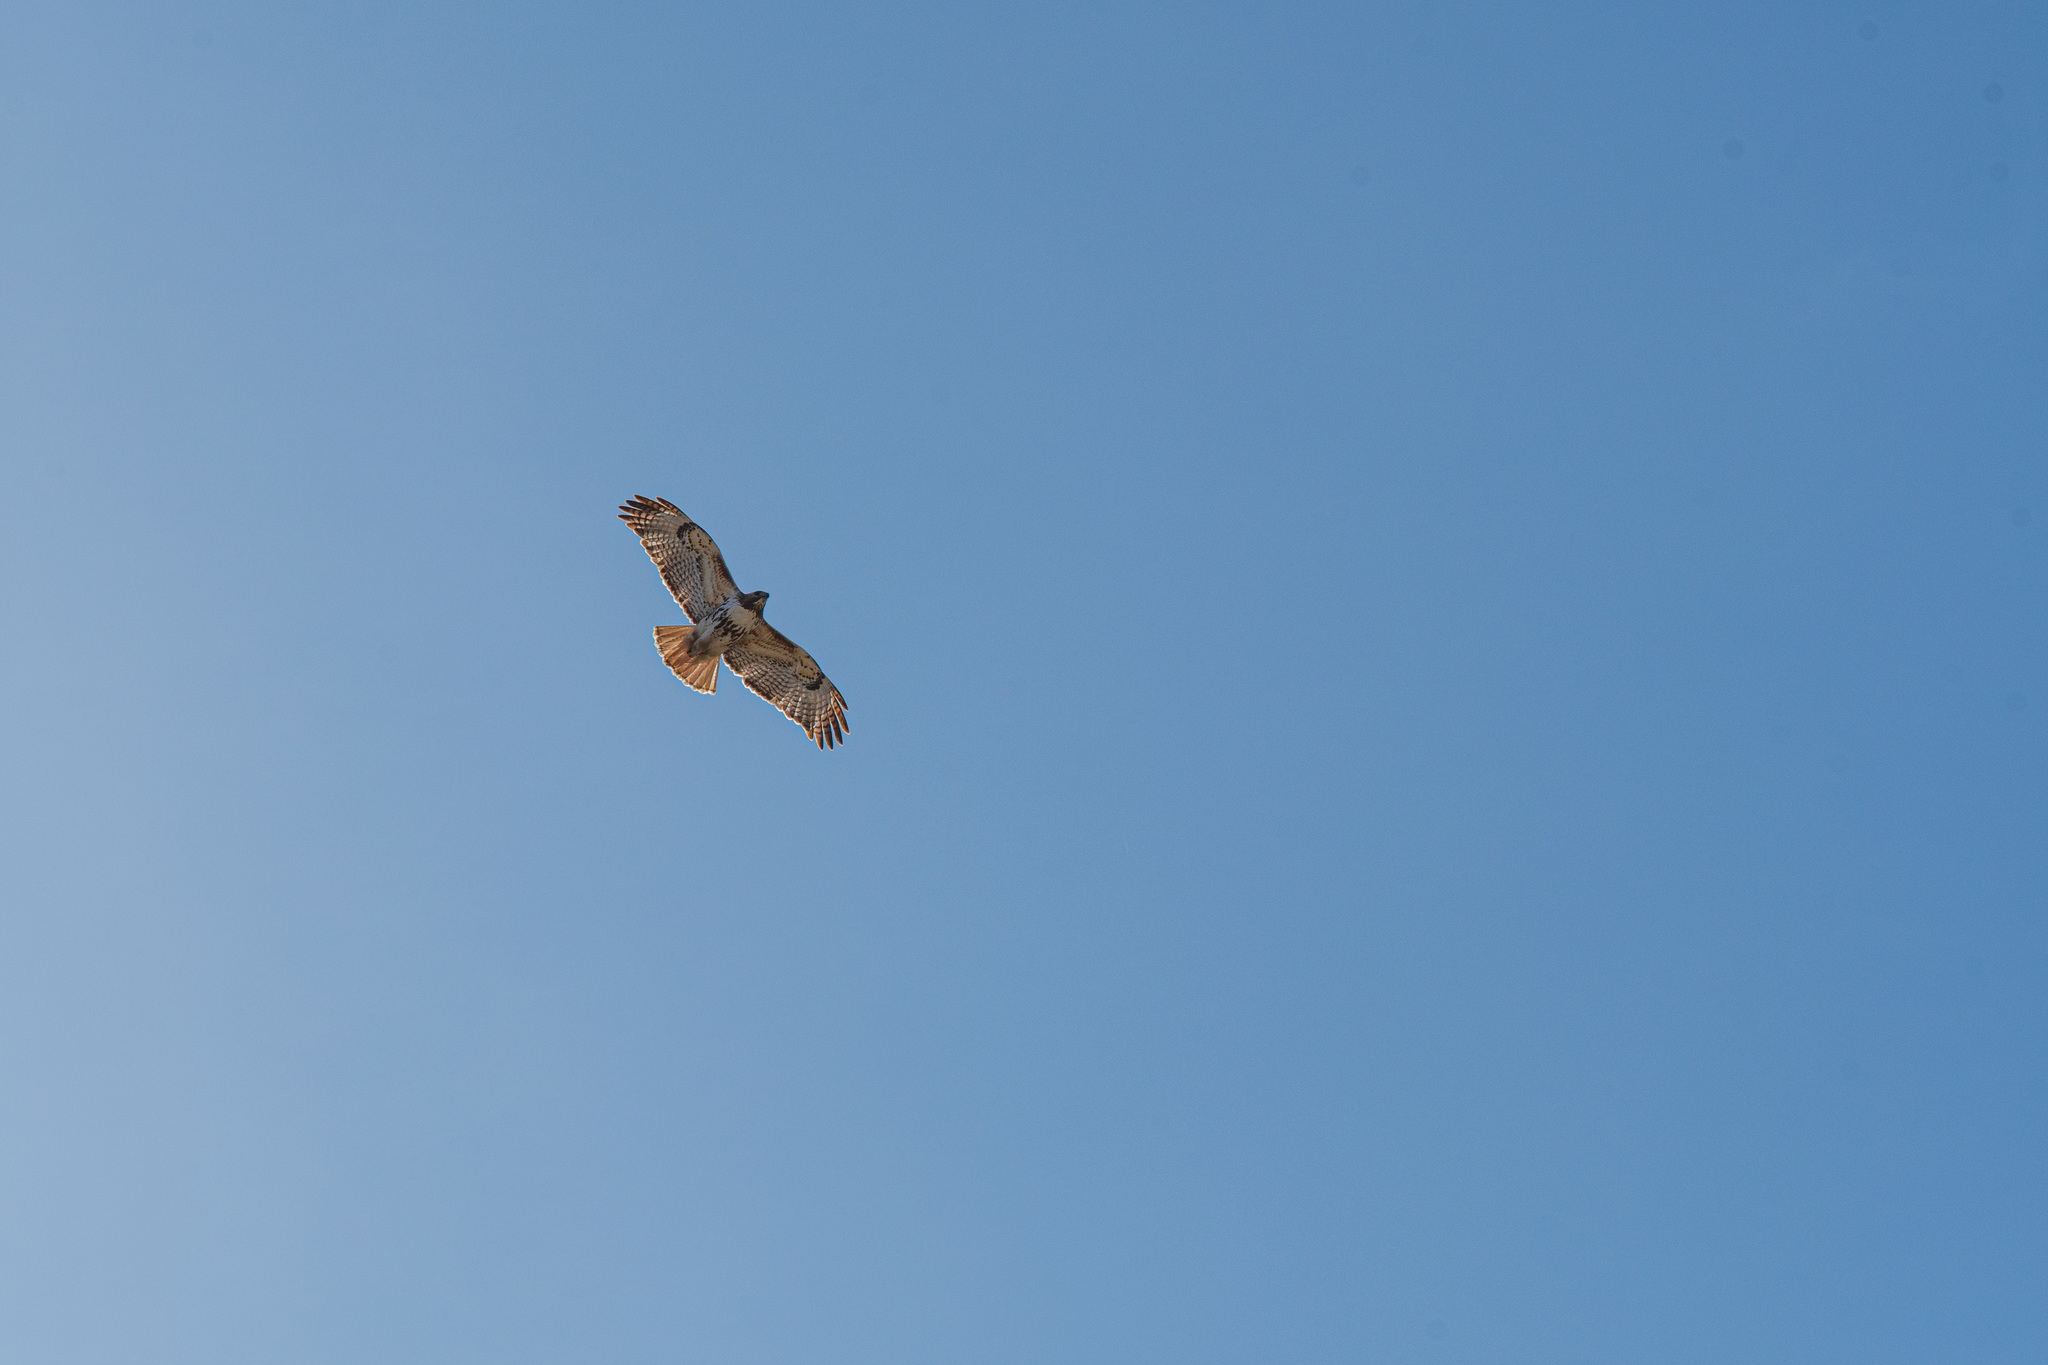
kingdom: Animalia
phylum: Chordata
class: Aves
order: Accipitriformes
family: Accipitridae
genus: Buteo
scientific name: Buteo jamaicensis
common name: Red-tailed hawk
